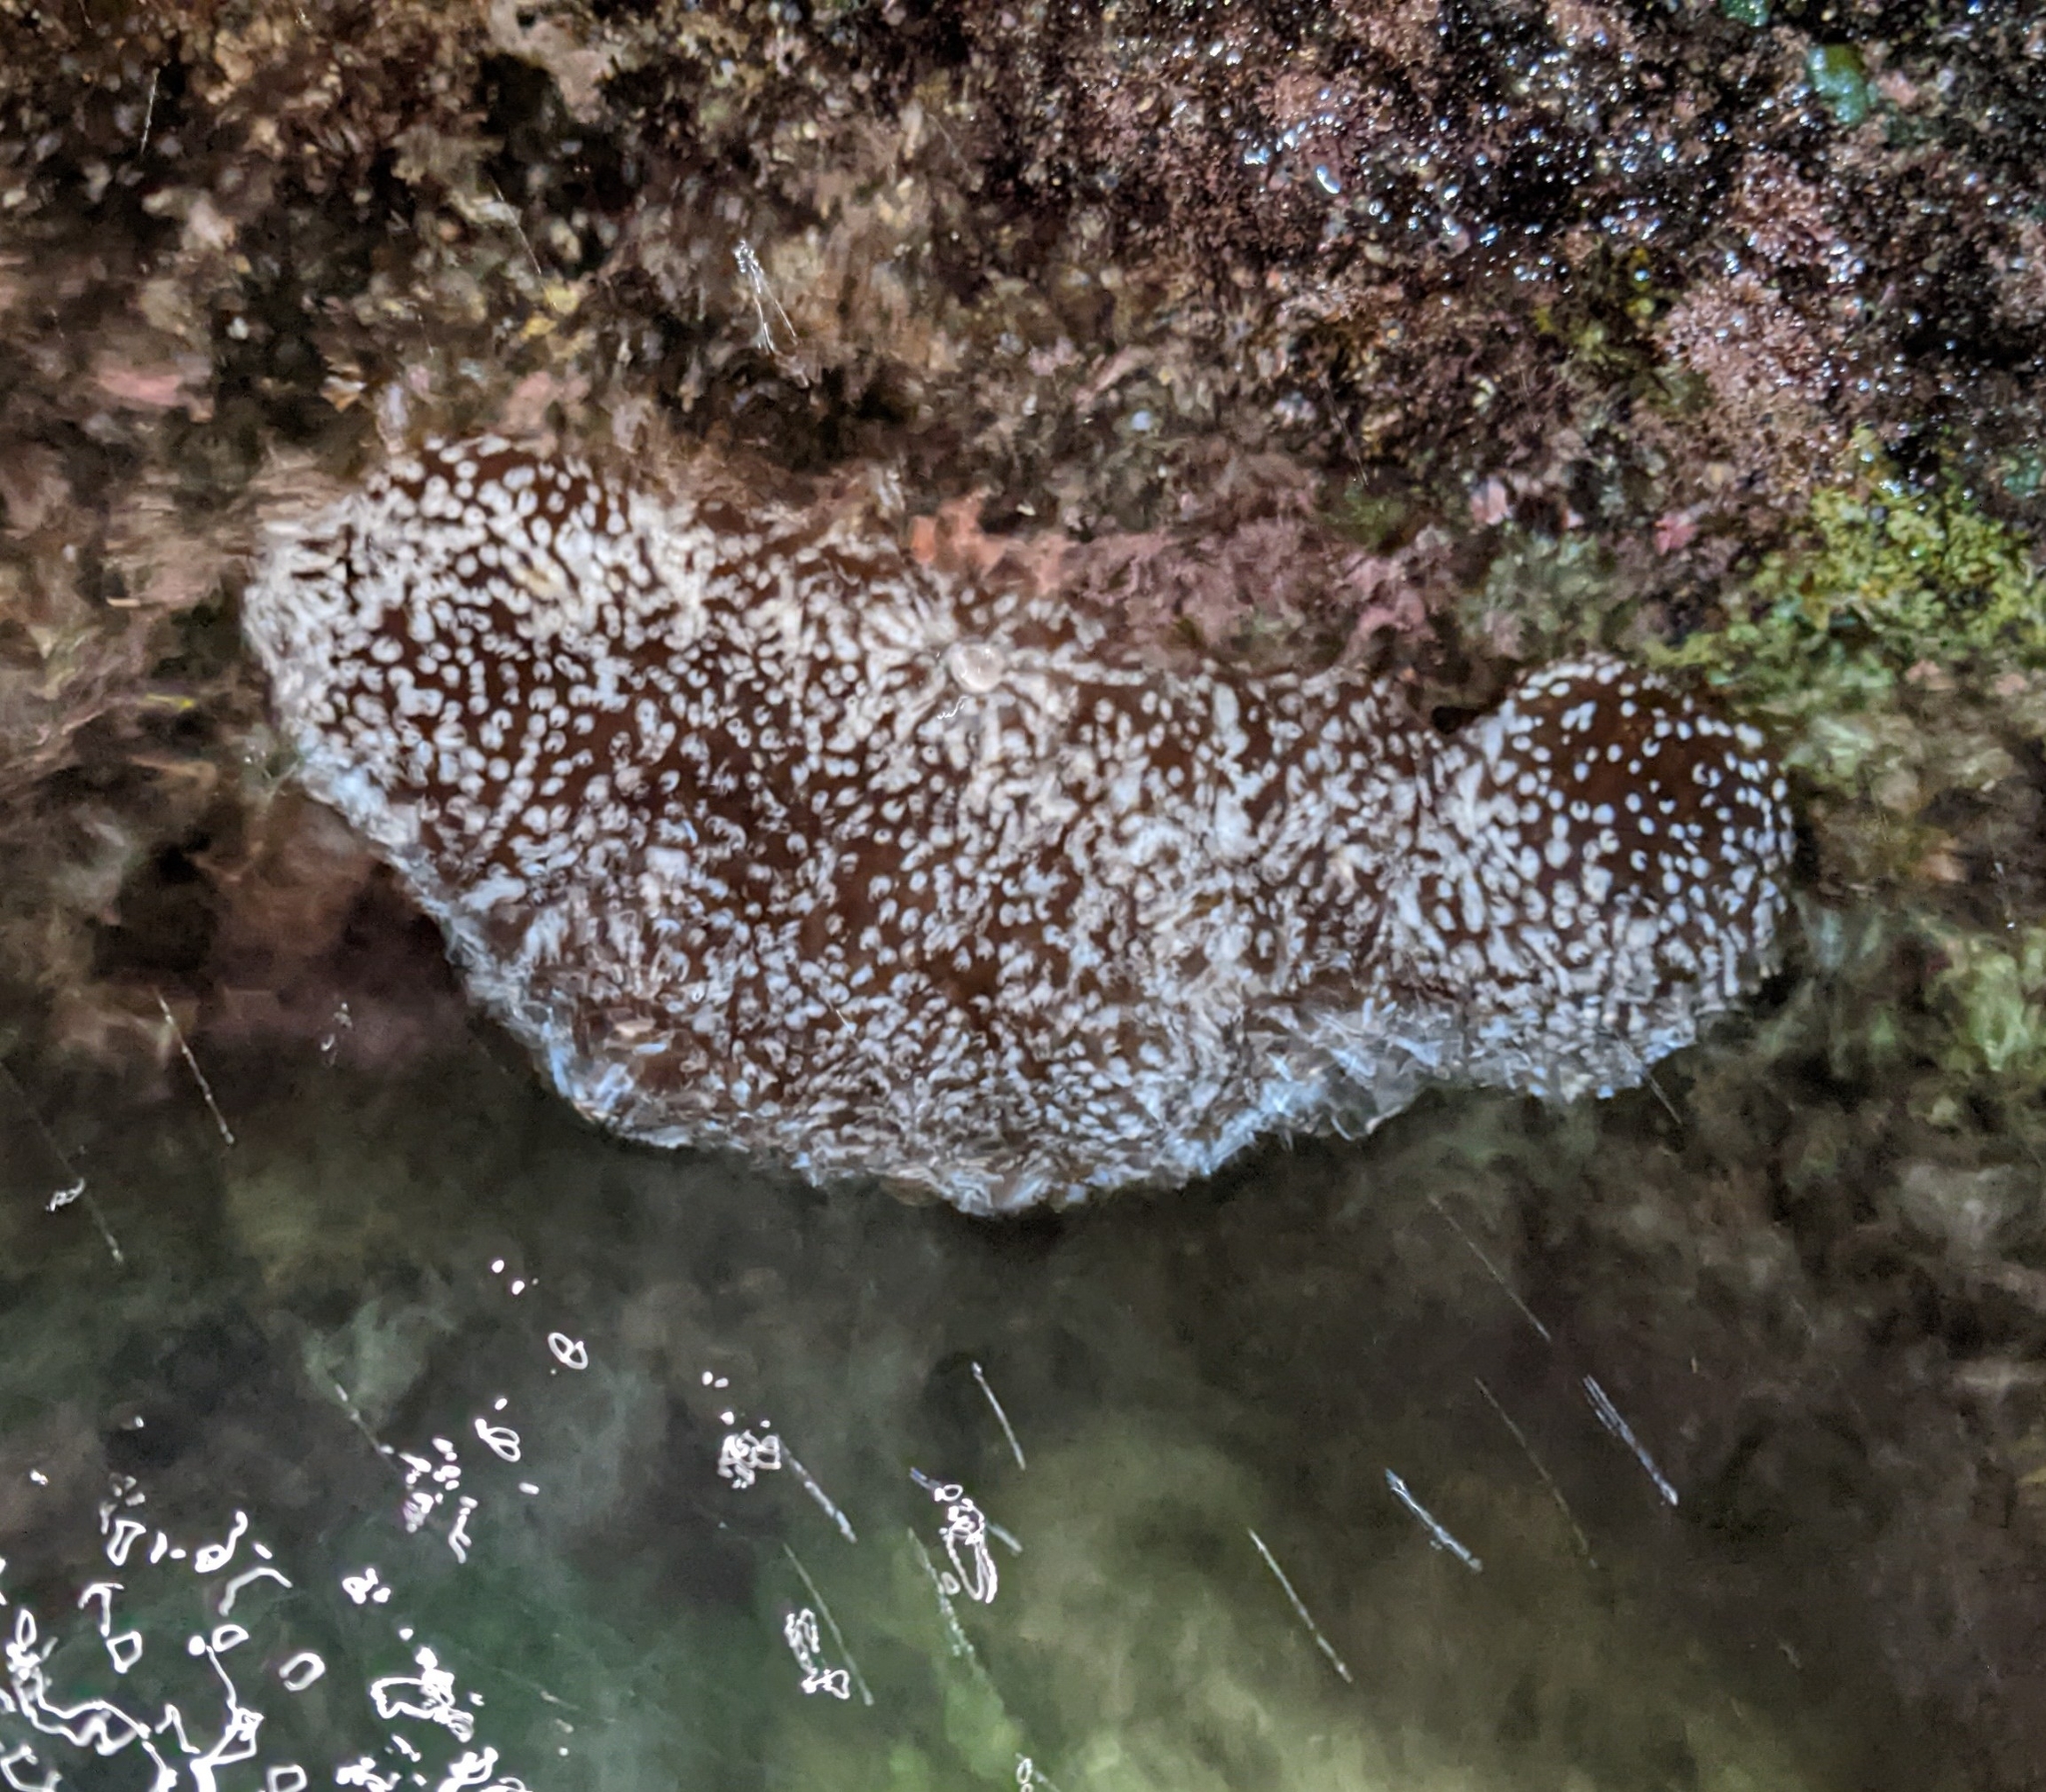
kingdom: Animalia
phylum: Echinodermata
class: Holothuroidea
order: Holothuriida
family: Holothuriidae
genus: Actinopyga
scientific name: Actinopyga varians
